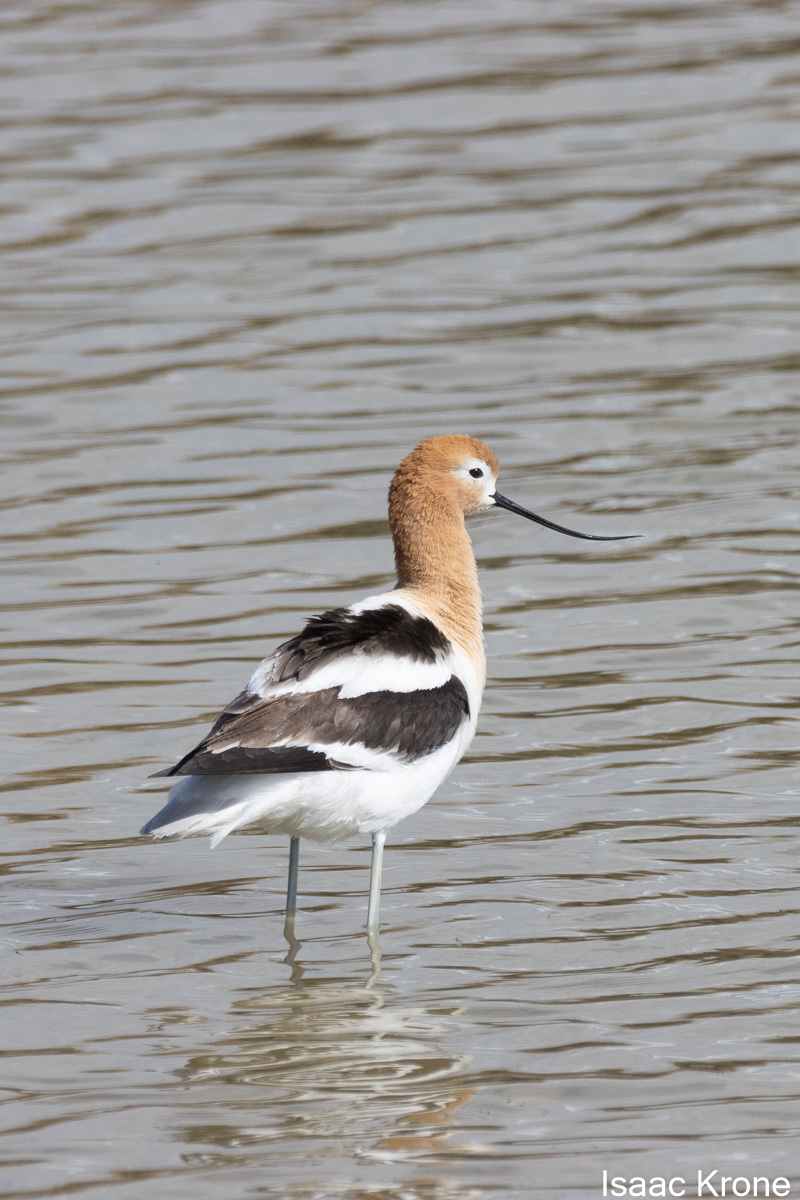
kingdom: Animalia
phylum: Chordata
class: Aves
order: Charadriiformes
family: Recurvirostridae
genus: Recurvirostra
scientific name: Recurvirostra americana
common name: American avocet
